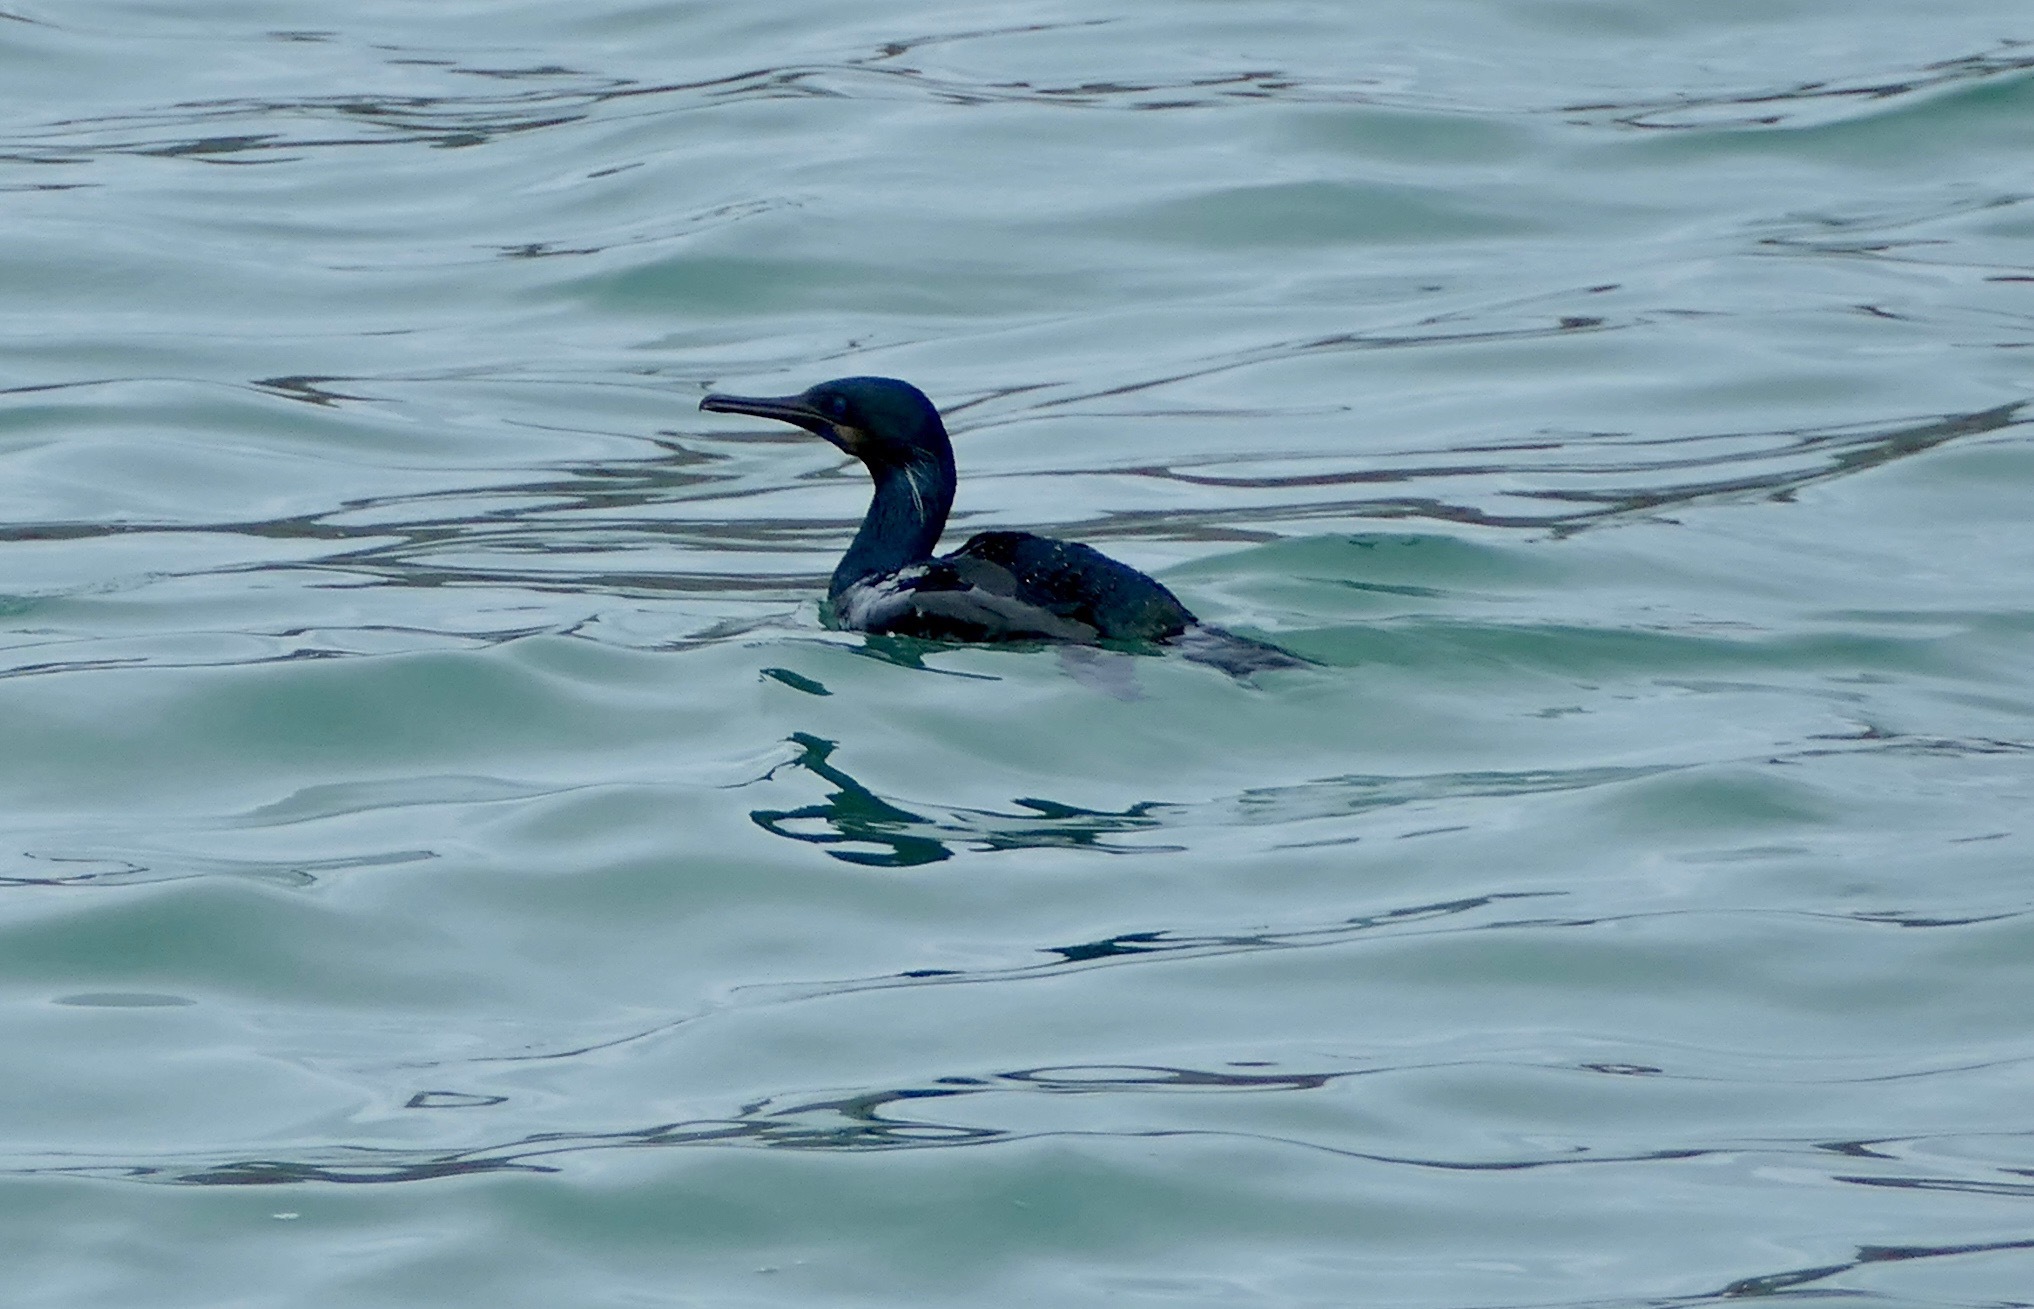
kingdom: Animalia
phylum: Chordata
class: Aves
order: Suliformes
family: Phalacrocoracidae
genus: Urile
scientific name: Urile penicillatus
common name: Brandt's cormorant
